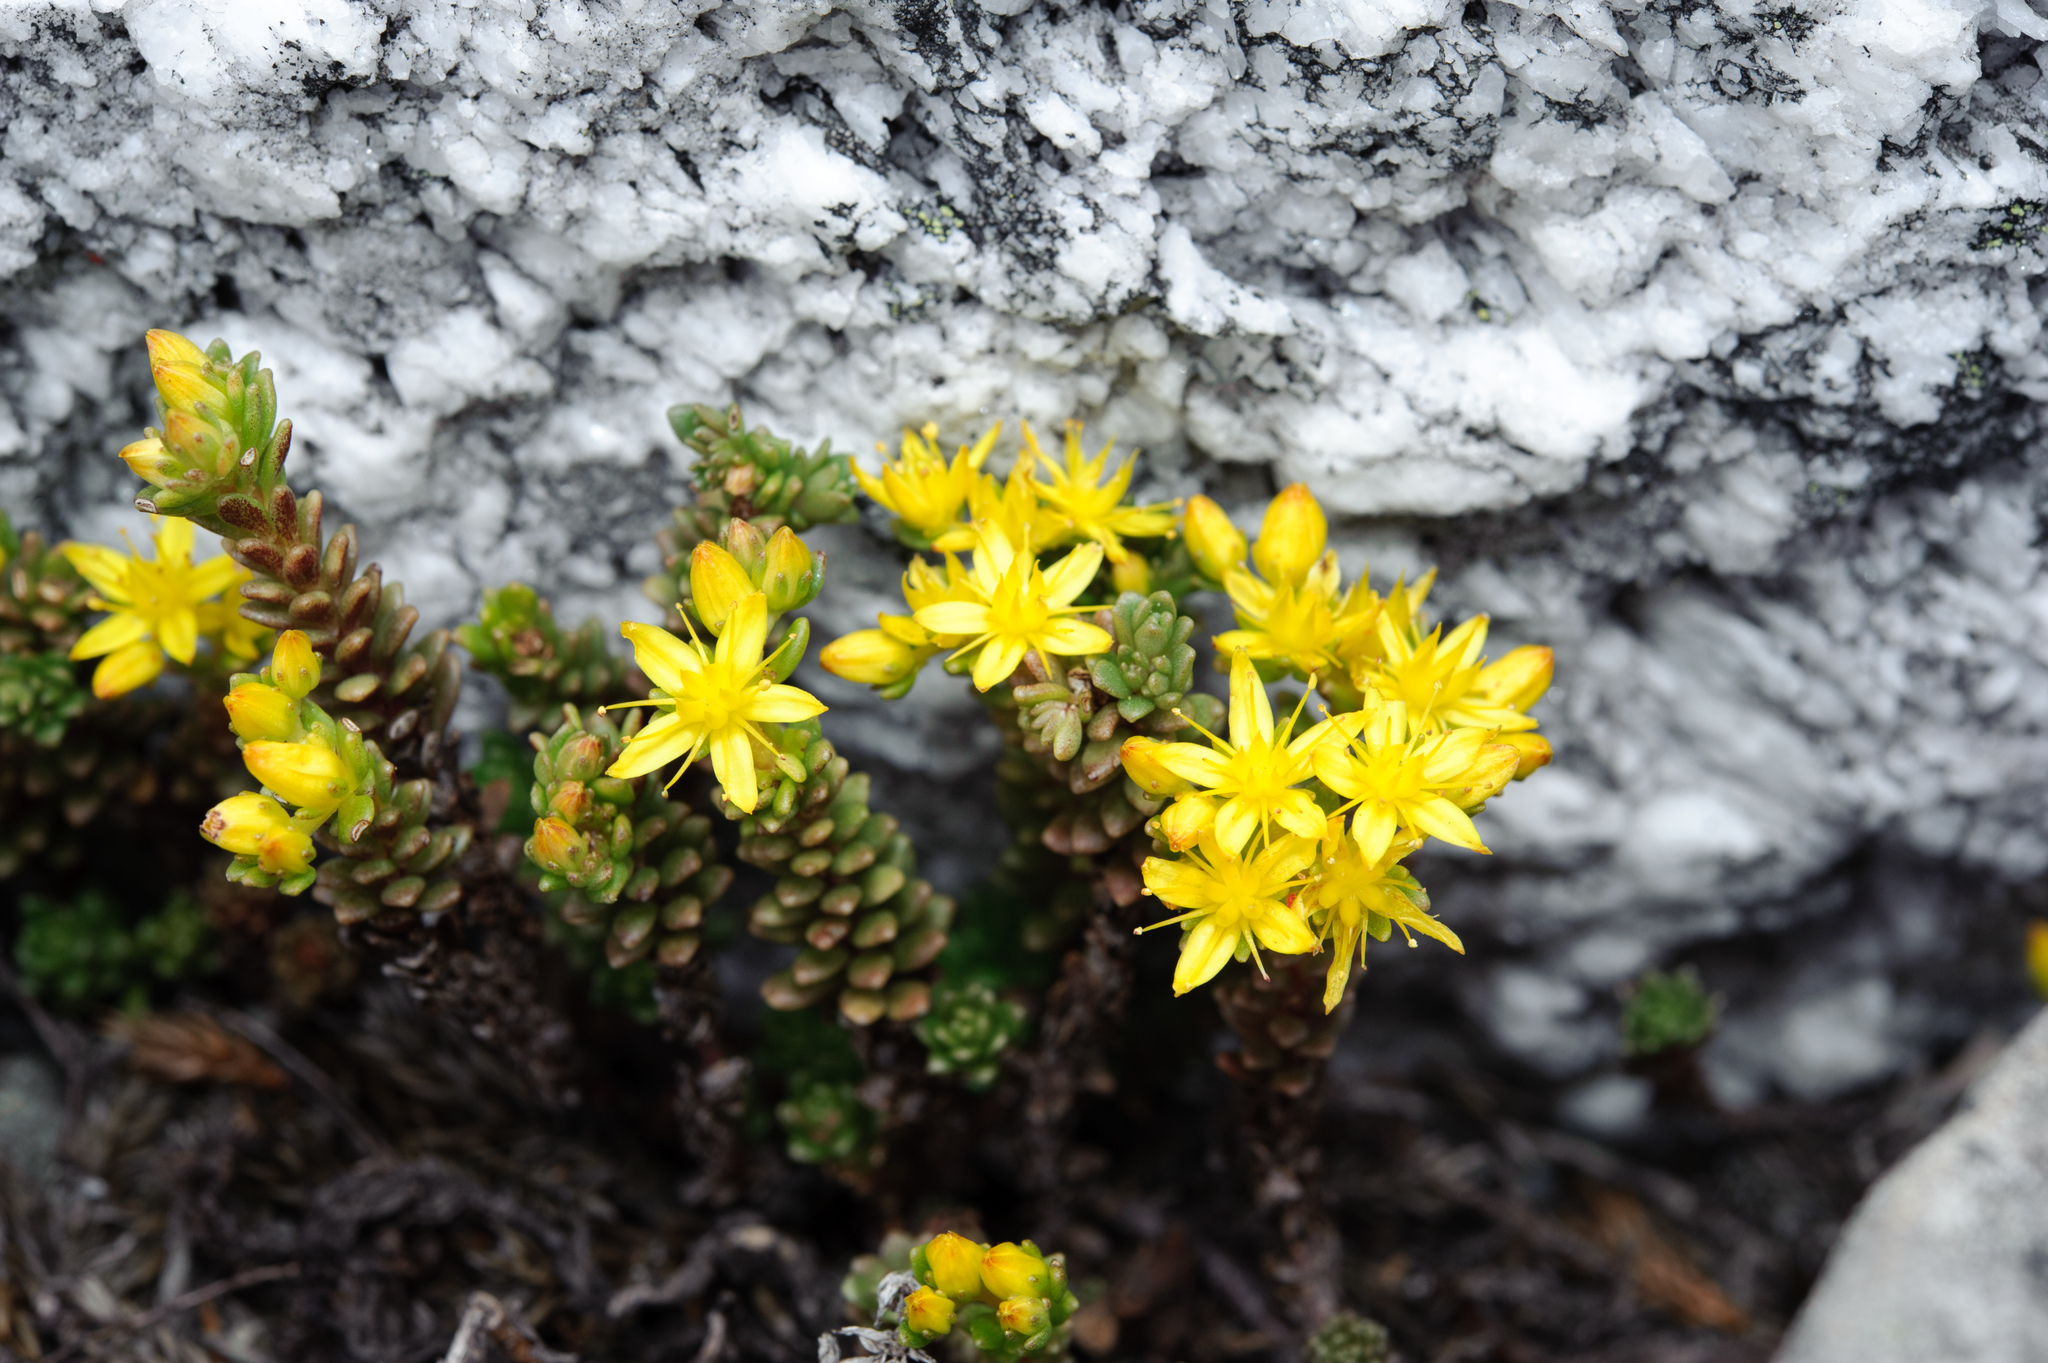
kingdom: Plantae
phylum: Tracheophyta
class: Magnoliopsida
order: Saxifragales
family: Crassulaceae
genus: Sedum
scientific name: Sedum morrisonense
